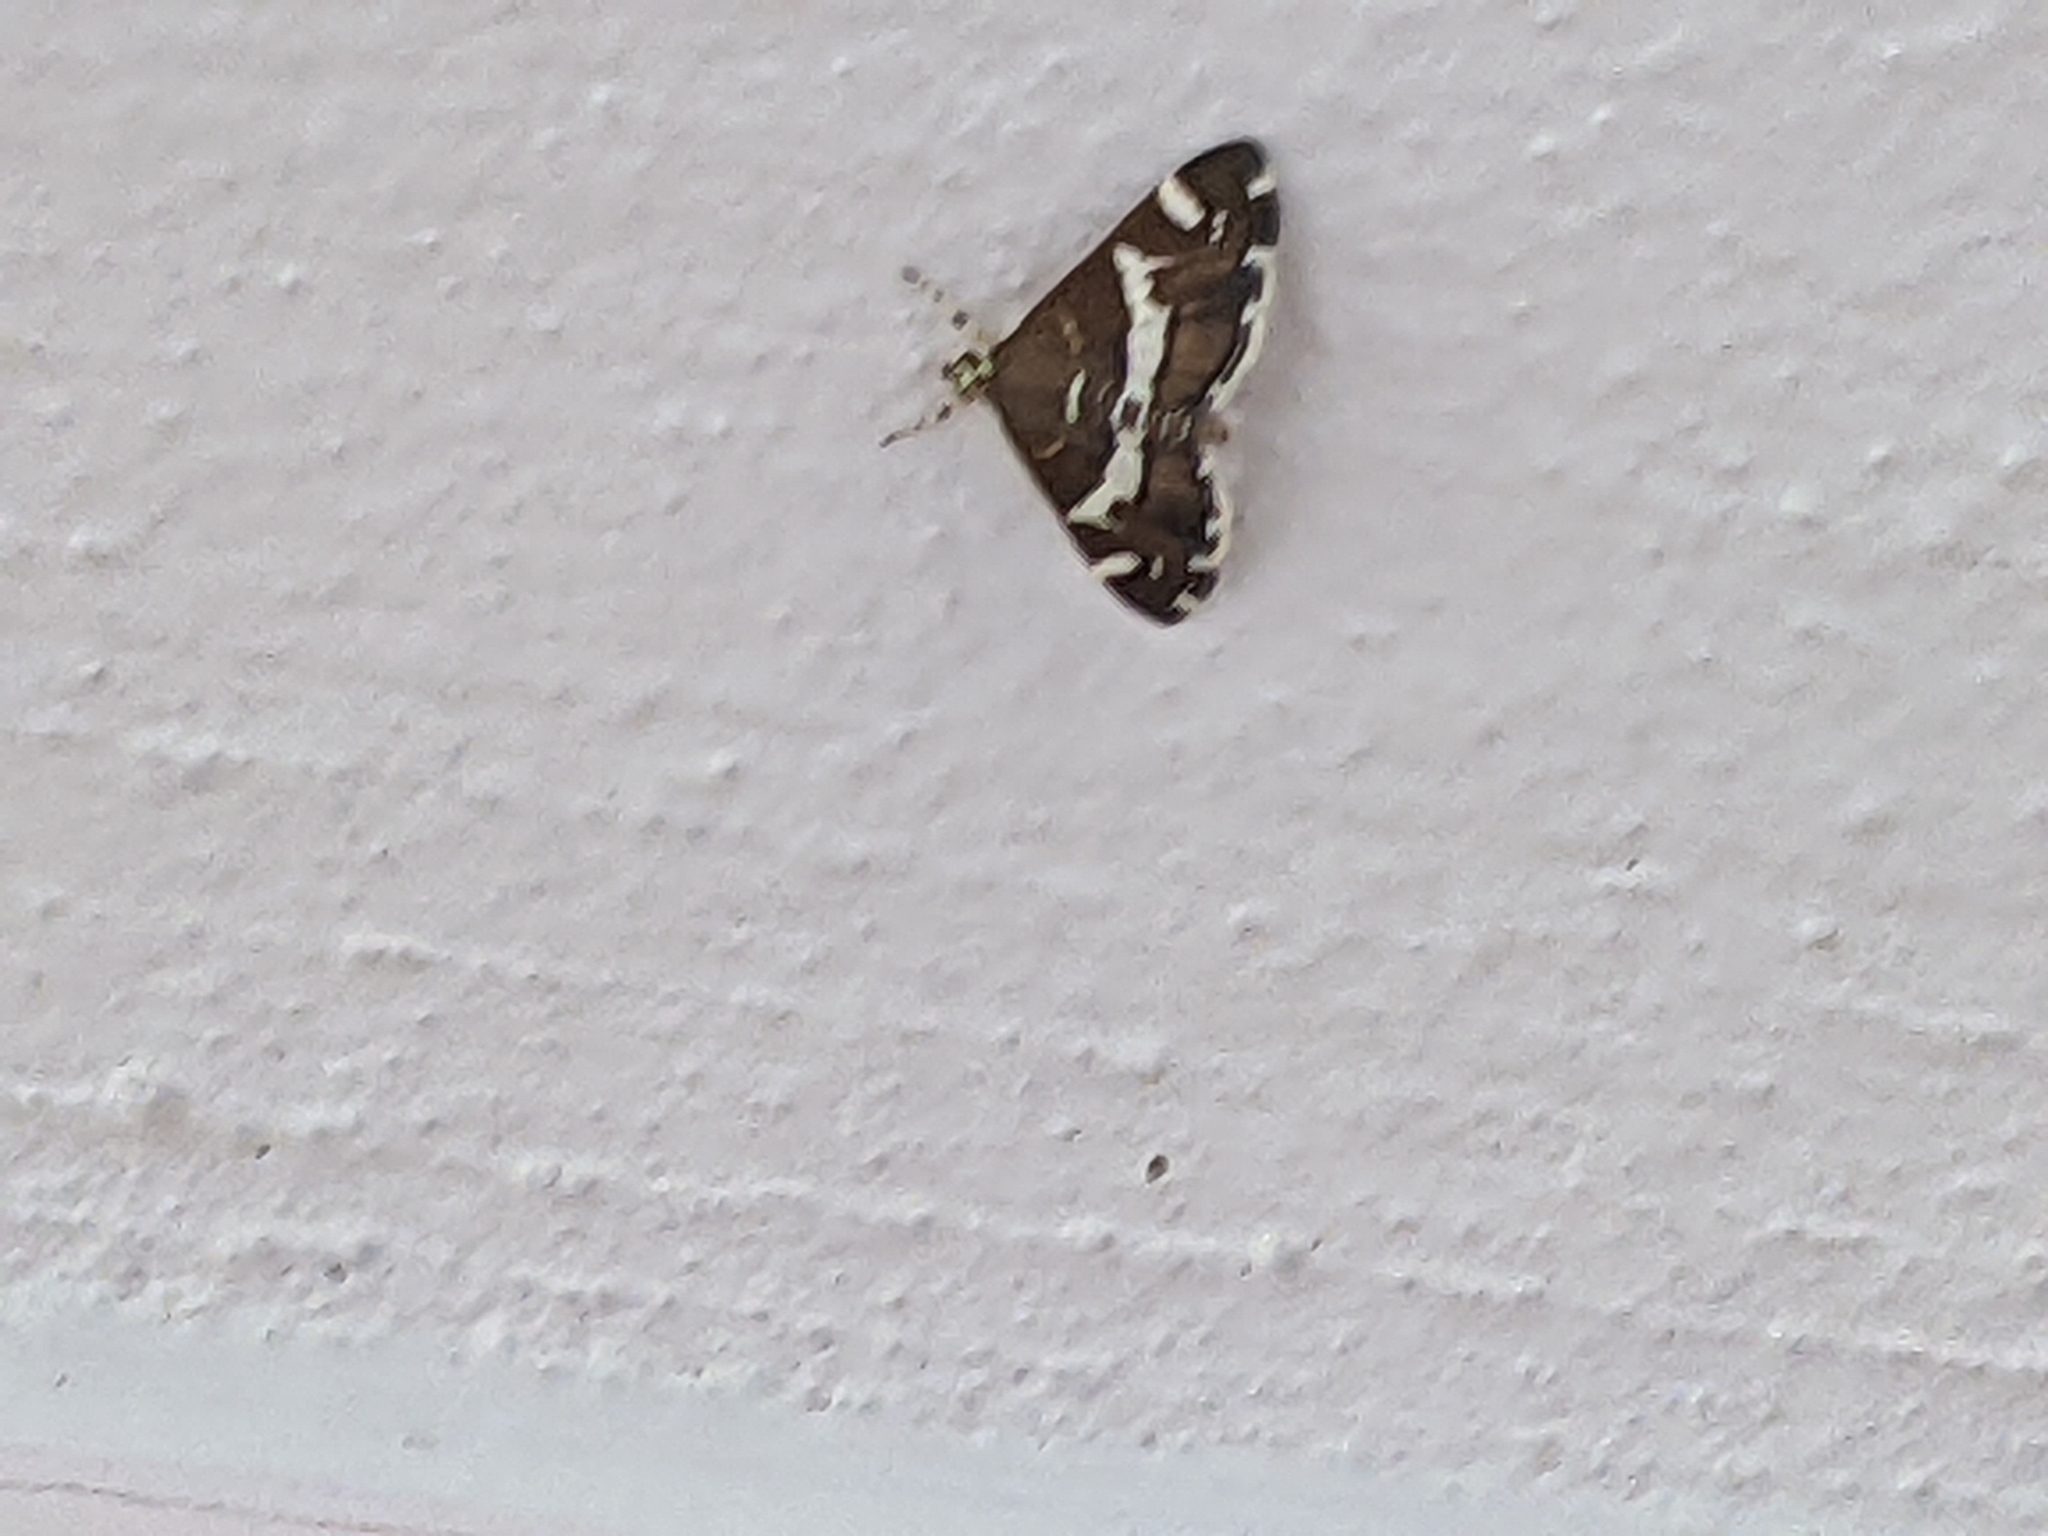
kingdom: Animalia
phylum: Arthropoda
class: Insecta
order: Lepidoptera
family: Crambidae
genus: Spoladea
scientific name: Spoladea recurvalis
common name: Beet webworm moth
